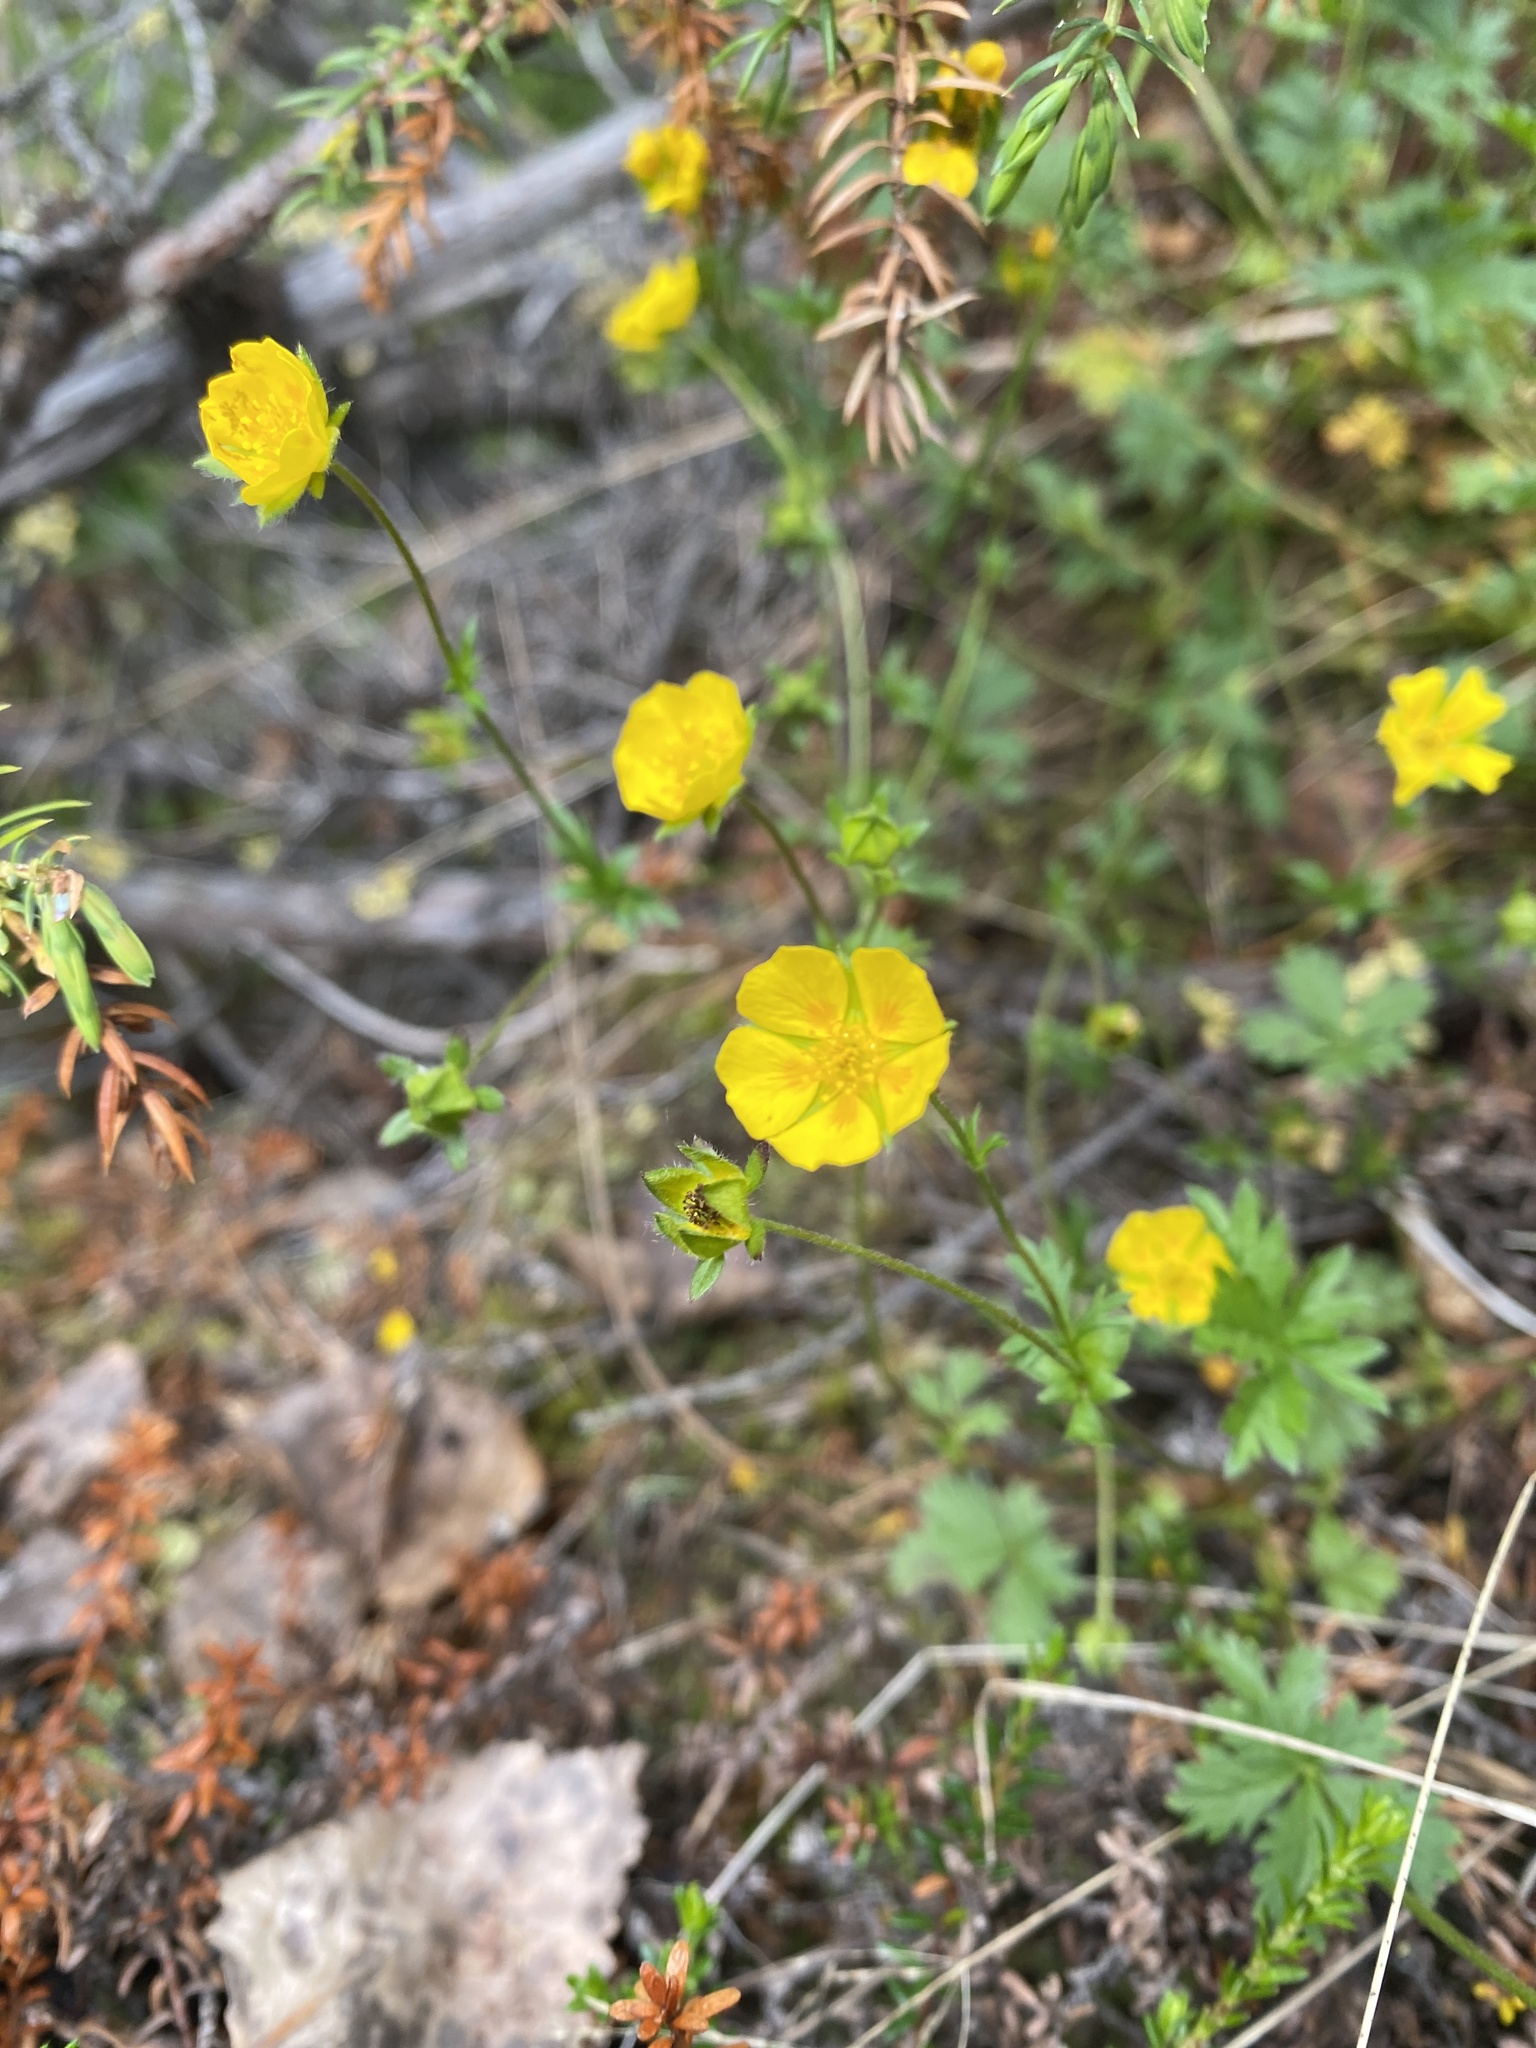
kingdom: Plantae
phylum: Tracheophyta
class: Magnoliopsida
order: Rosales
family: Rosaceae
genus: Potentilla
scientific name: Potentilla crantzii
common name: Alpine cinquefoil
